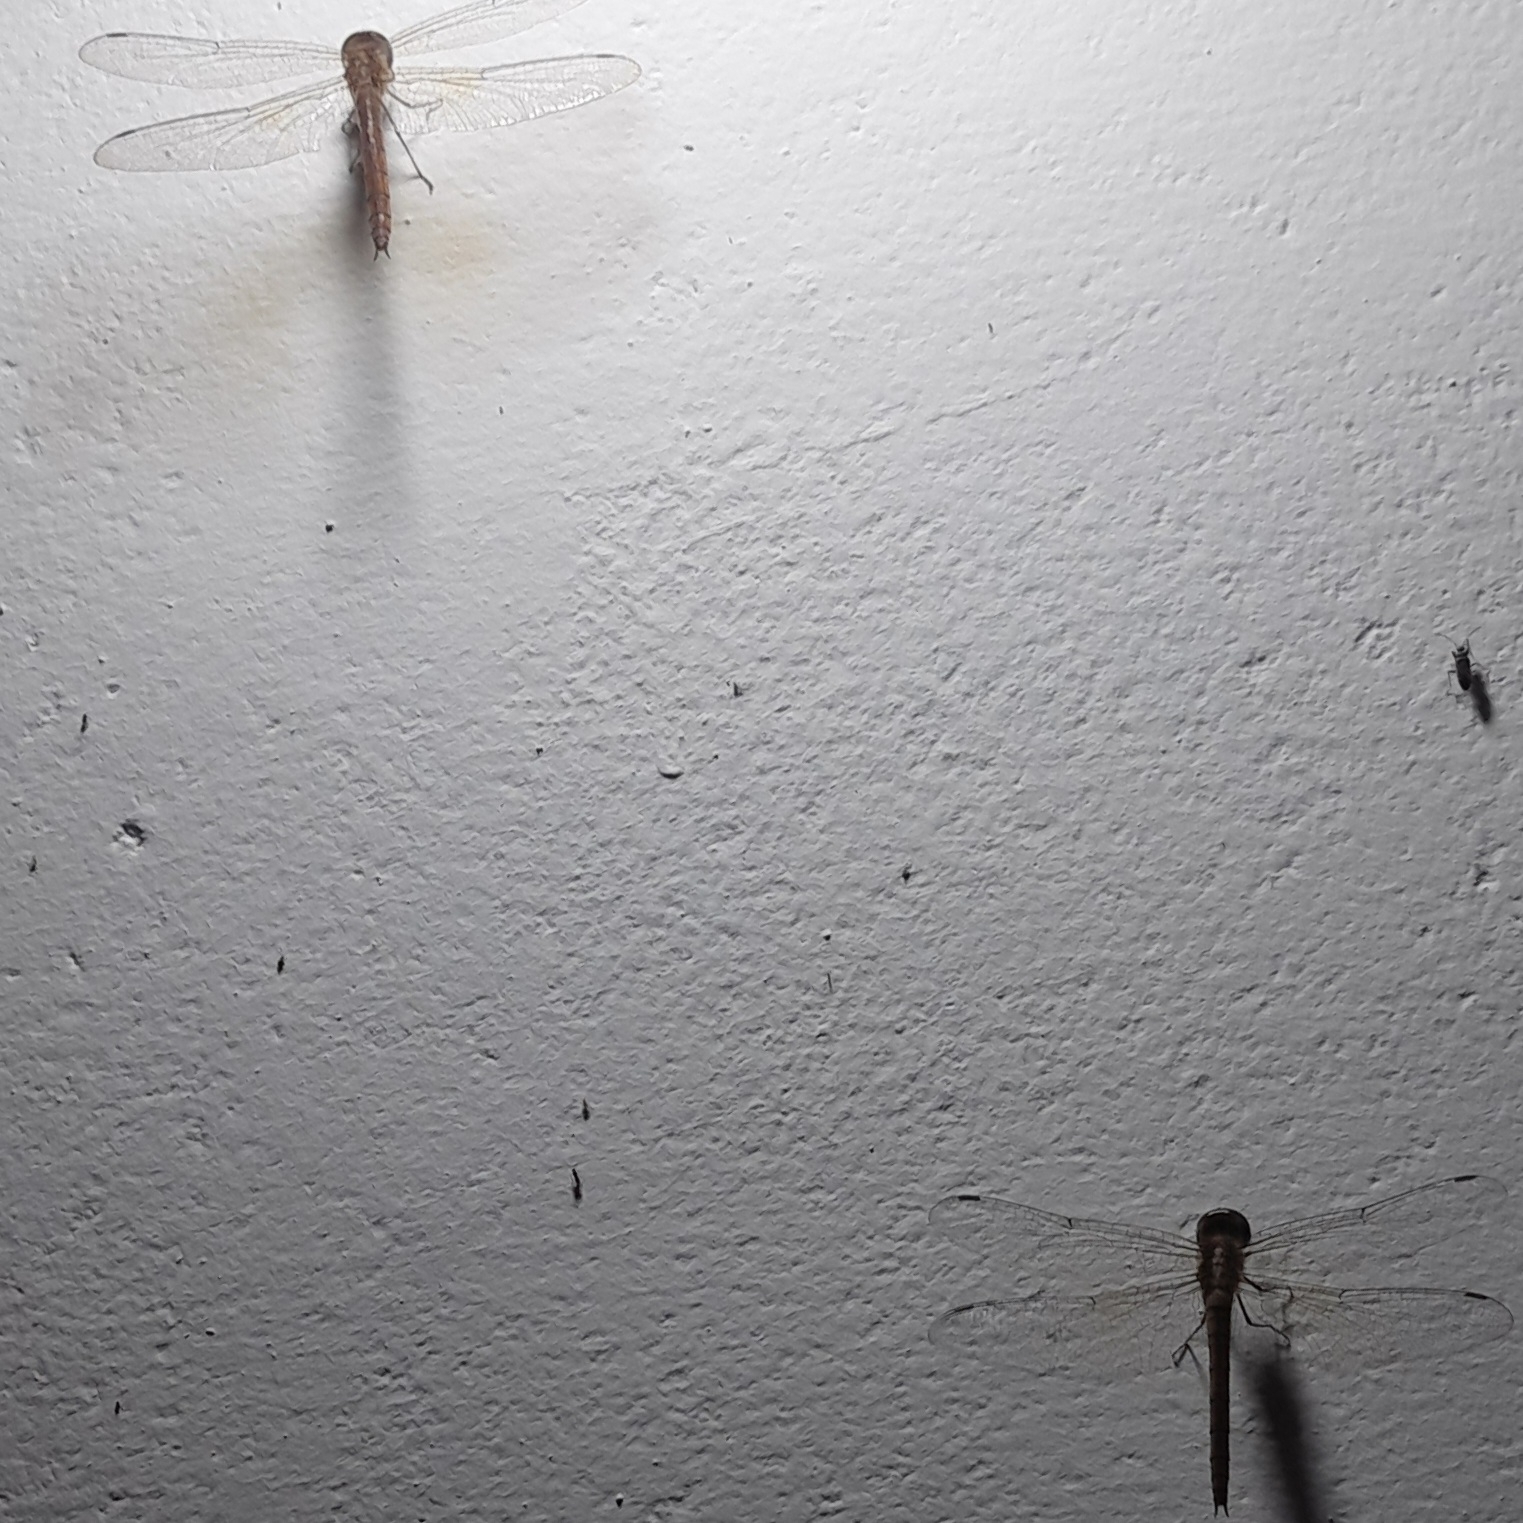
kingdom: Animalia
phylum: Arthropoda
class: Insecta
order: Odonata
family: Libellulidae
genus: Tholymis
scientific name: Tholymis tillarga
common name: Coral-tailed cloud wing
